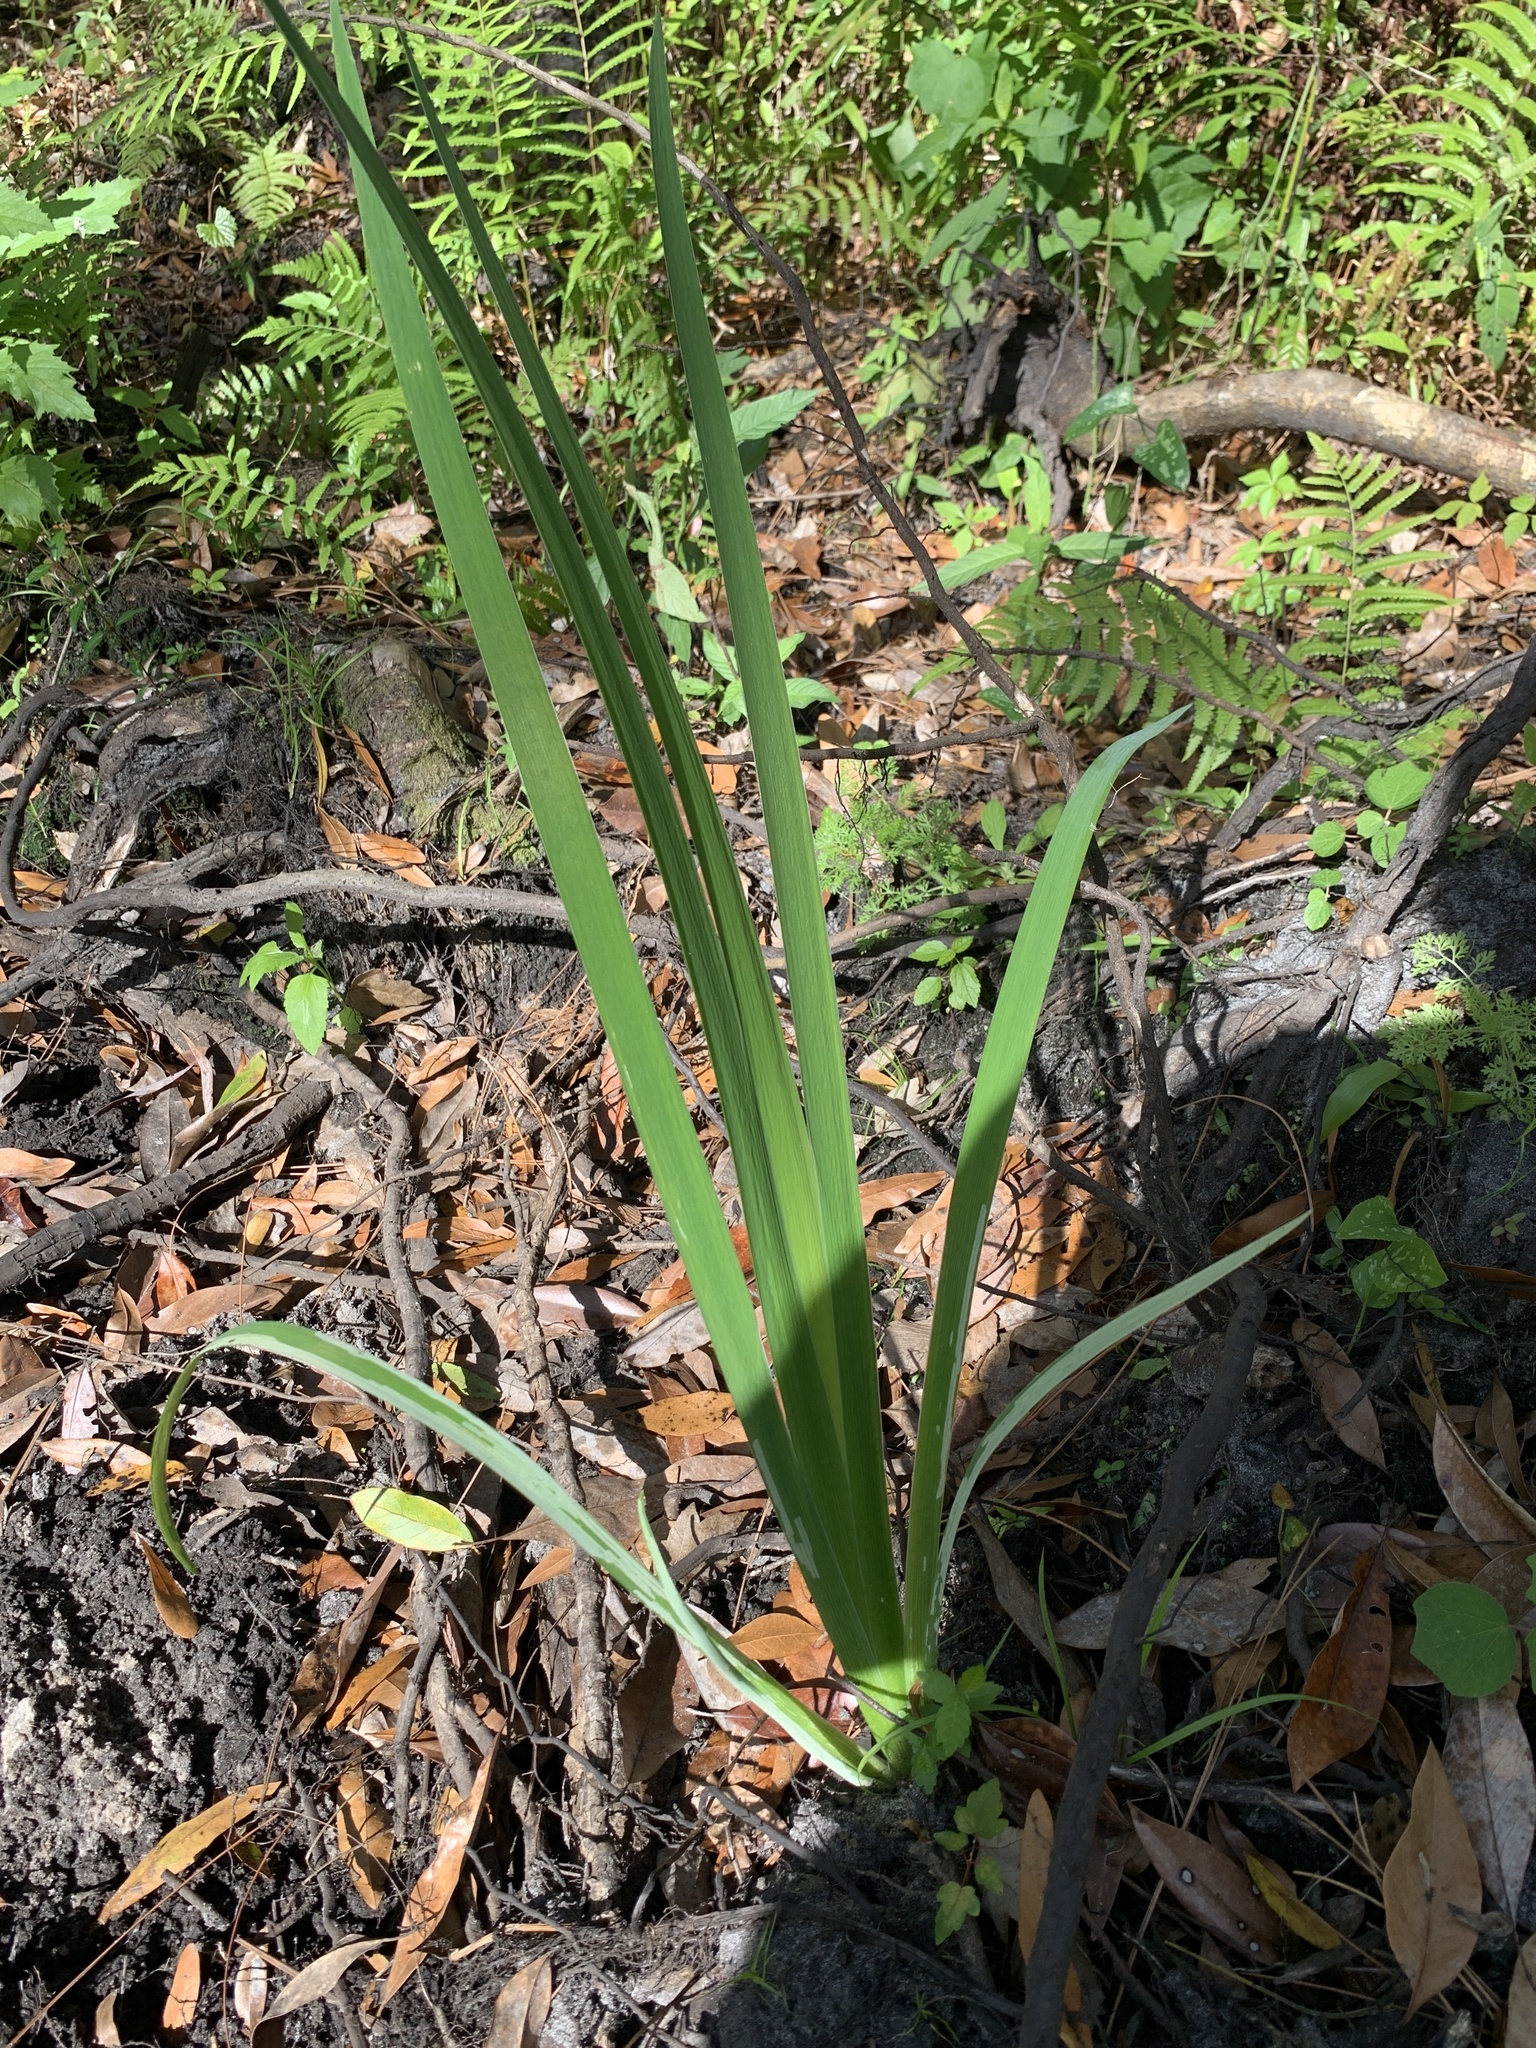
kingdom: Plantae
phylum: Tracheophyta
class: Liliopsida
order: Asparagales
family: Iridaceae
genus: Iris
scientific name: Iris savannarum
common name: Prairie iris
